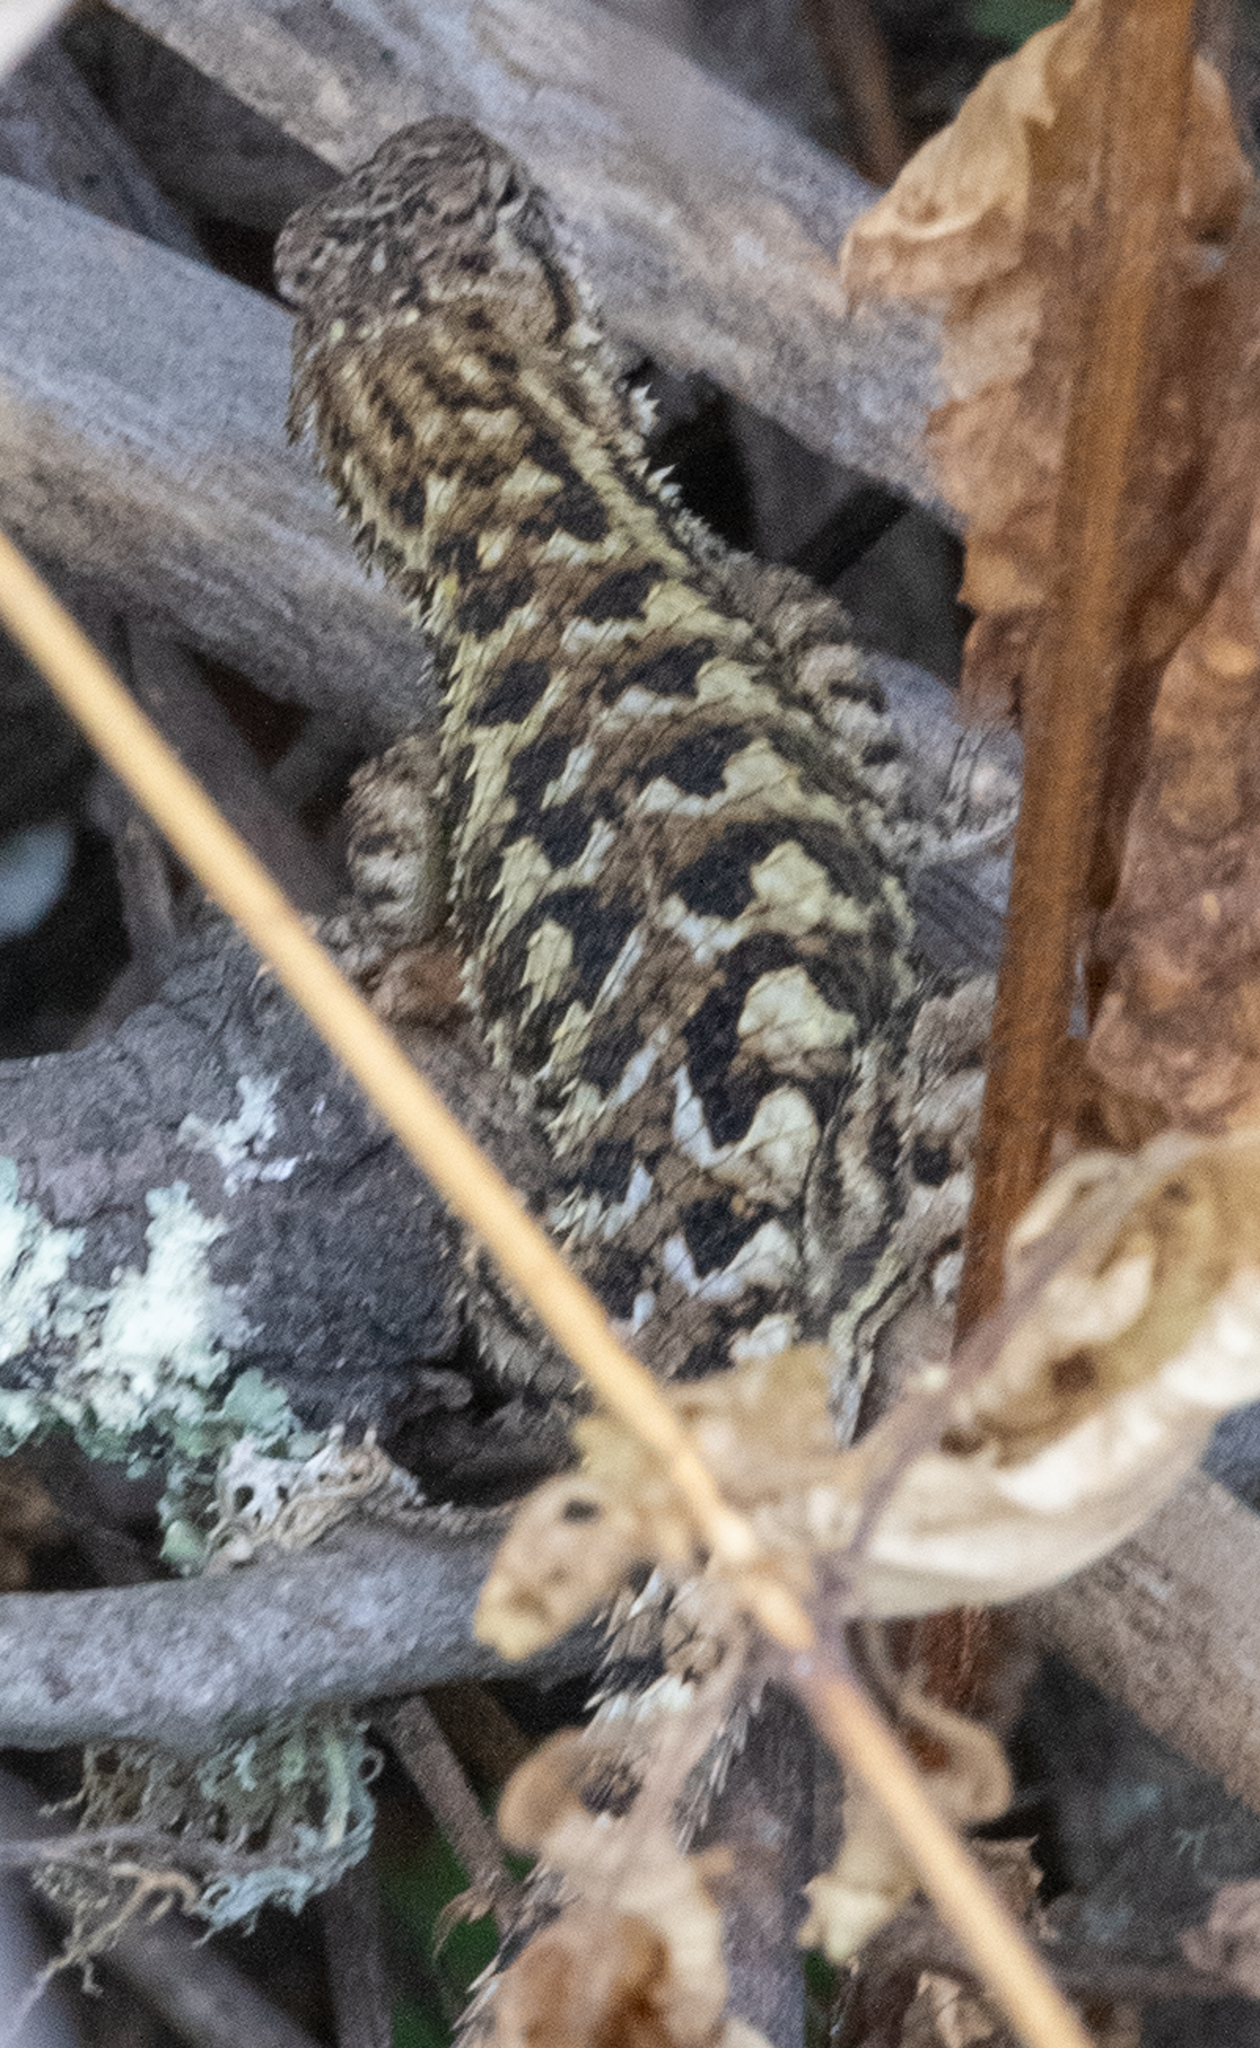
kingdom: Animalia
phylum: Chordata
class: Squamata
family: Phrynosomatidae
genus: Sceloporus
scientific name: Sceloporus occidentalis
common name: Western fence lizard
